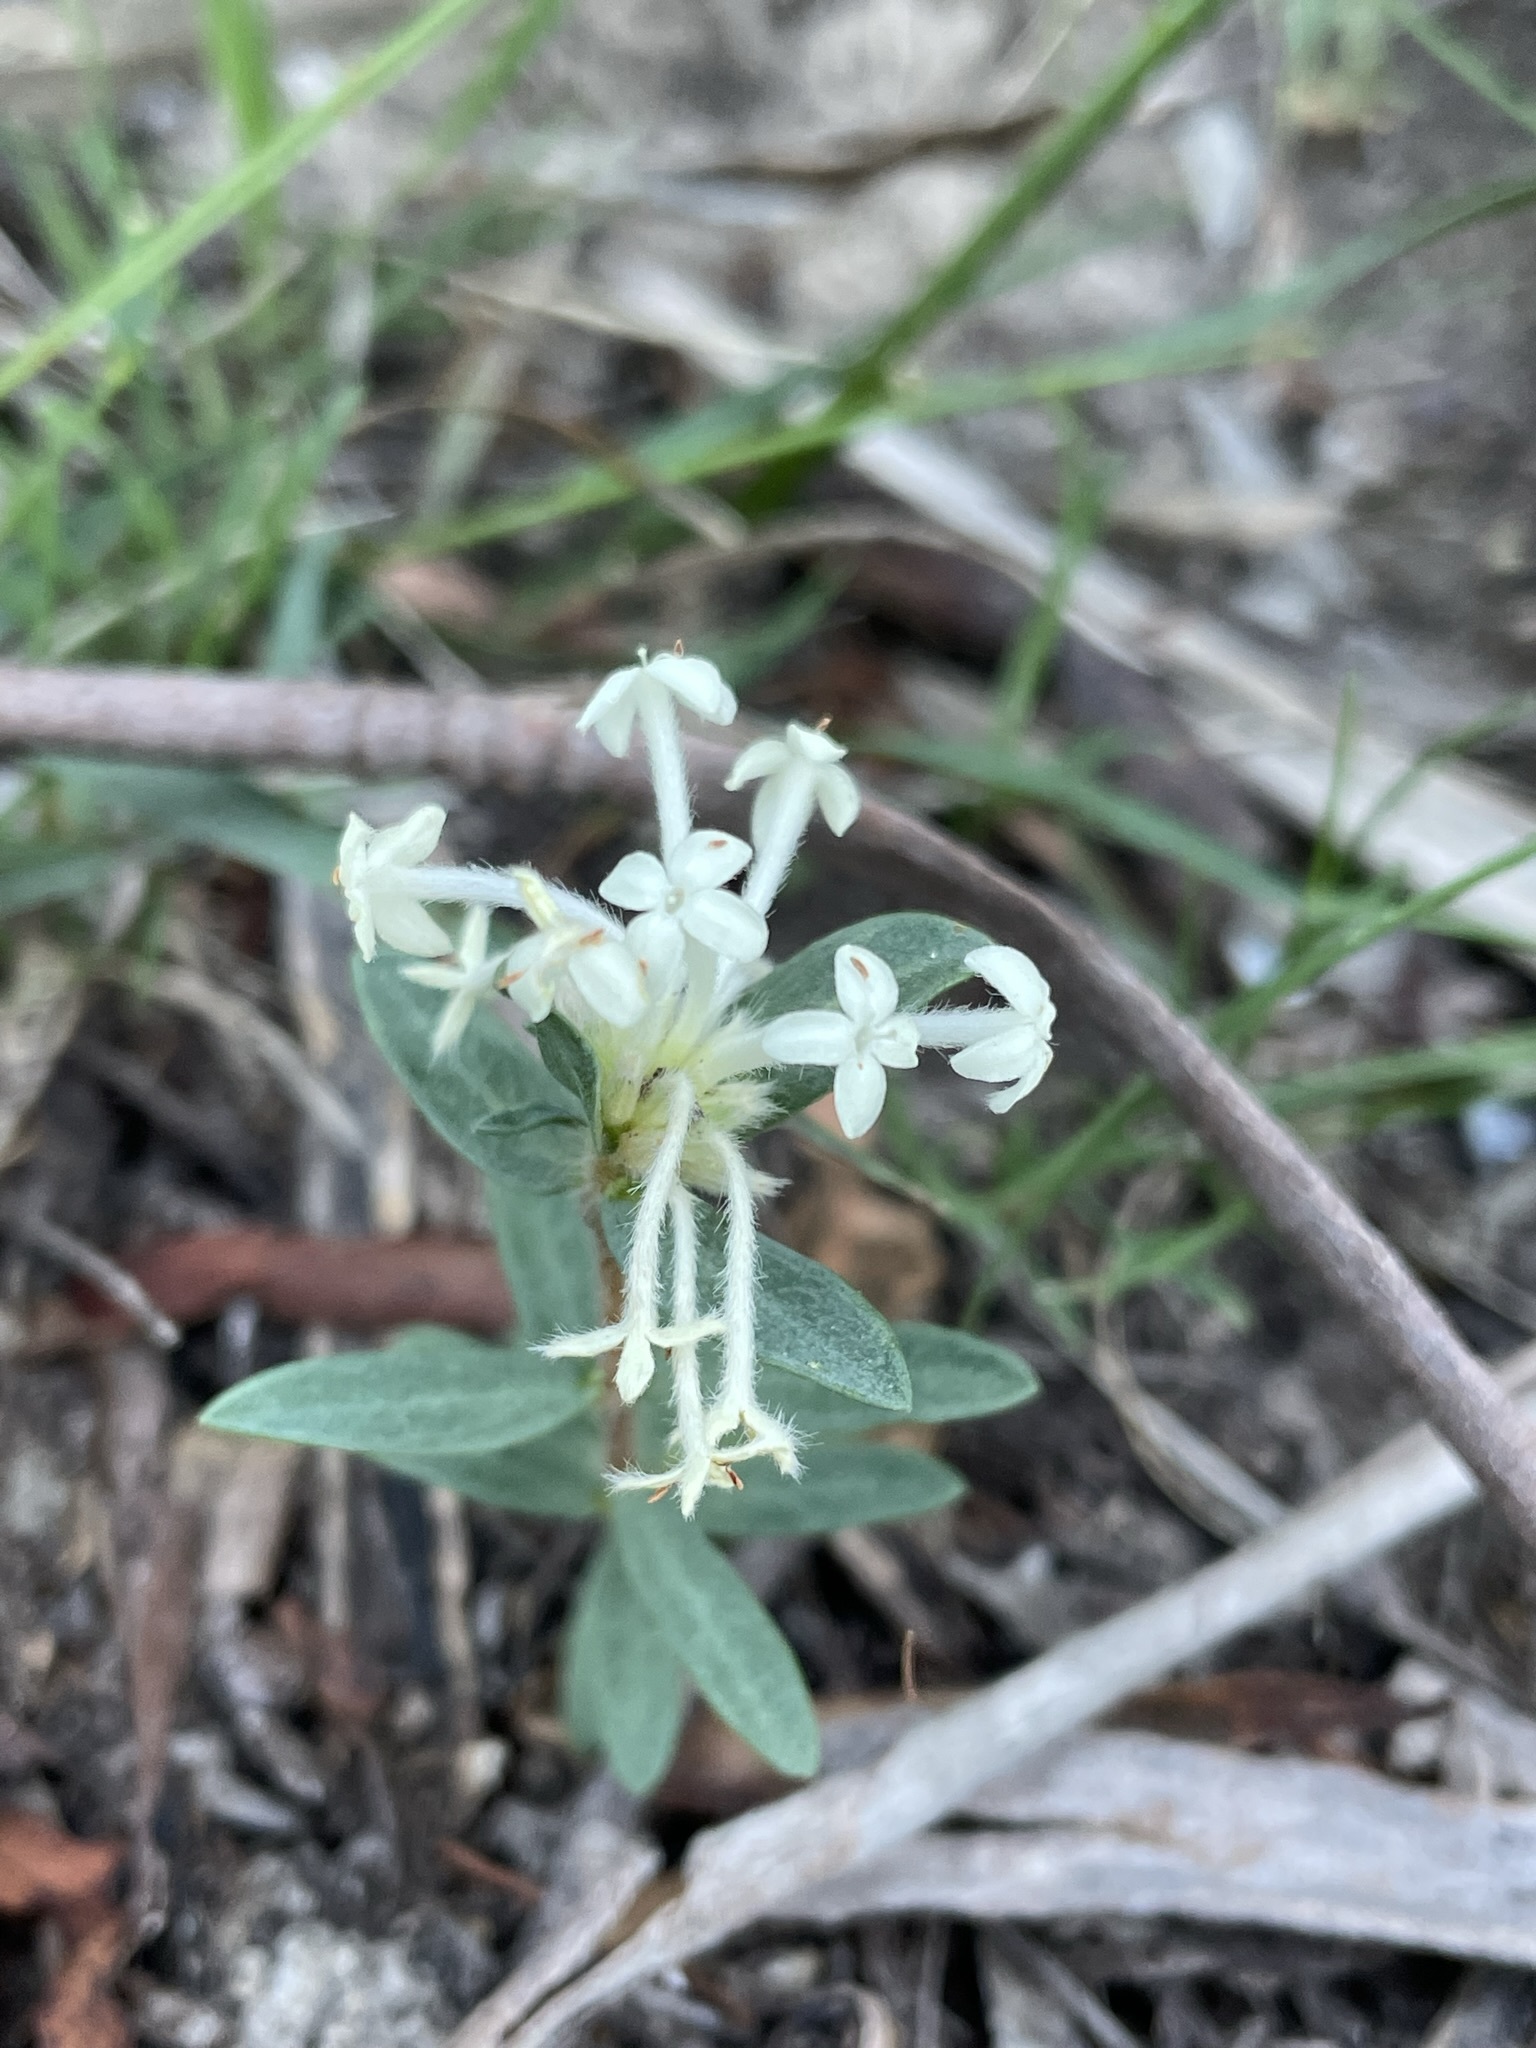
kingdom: Plantae
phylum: Tracheophyta
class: Magnoliopsida
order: Malvales
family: Thymelaeaceae
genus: Pimelea
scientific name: Pimelea humilis
